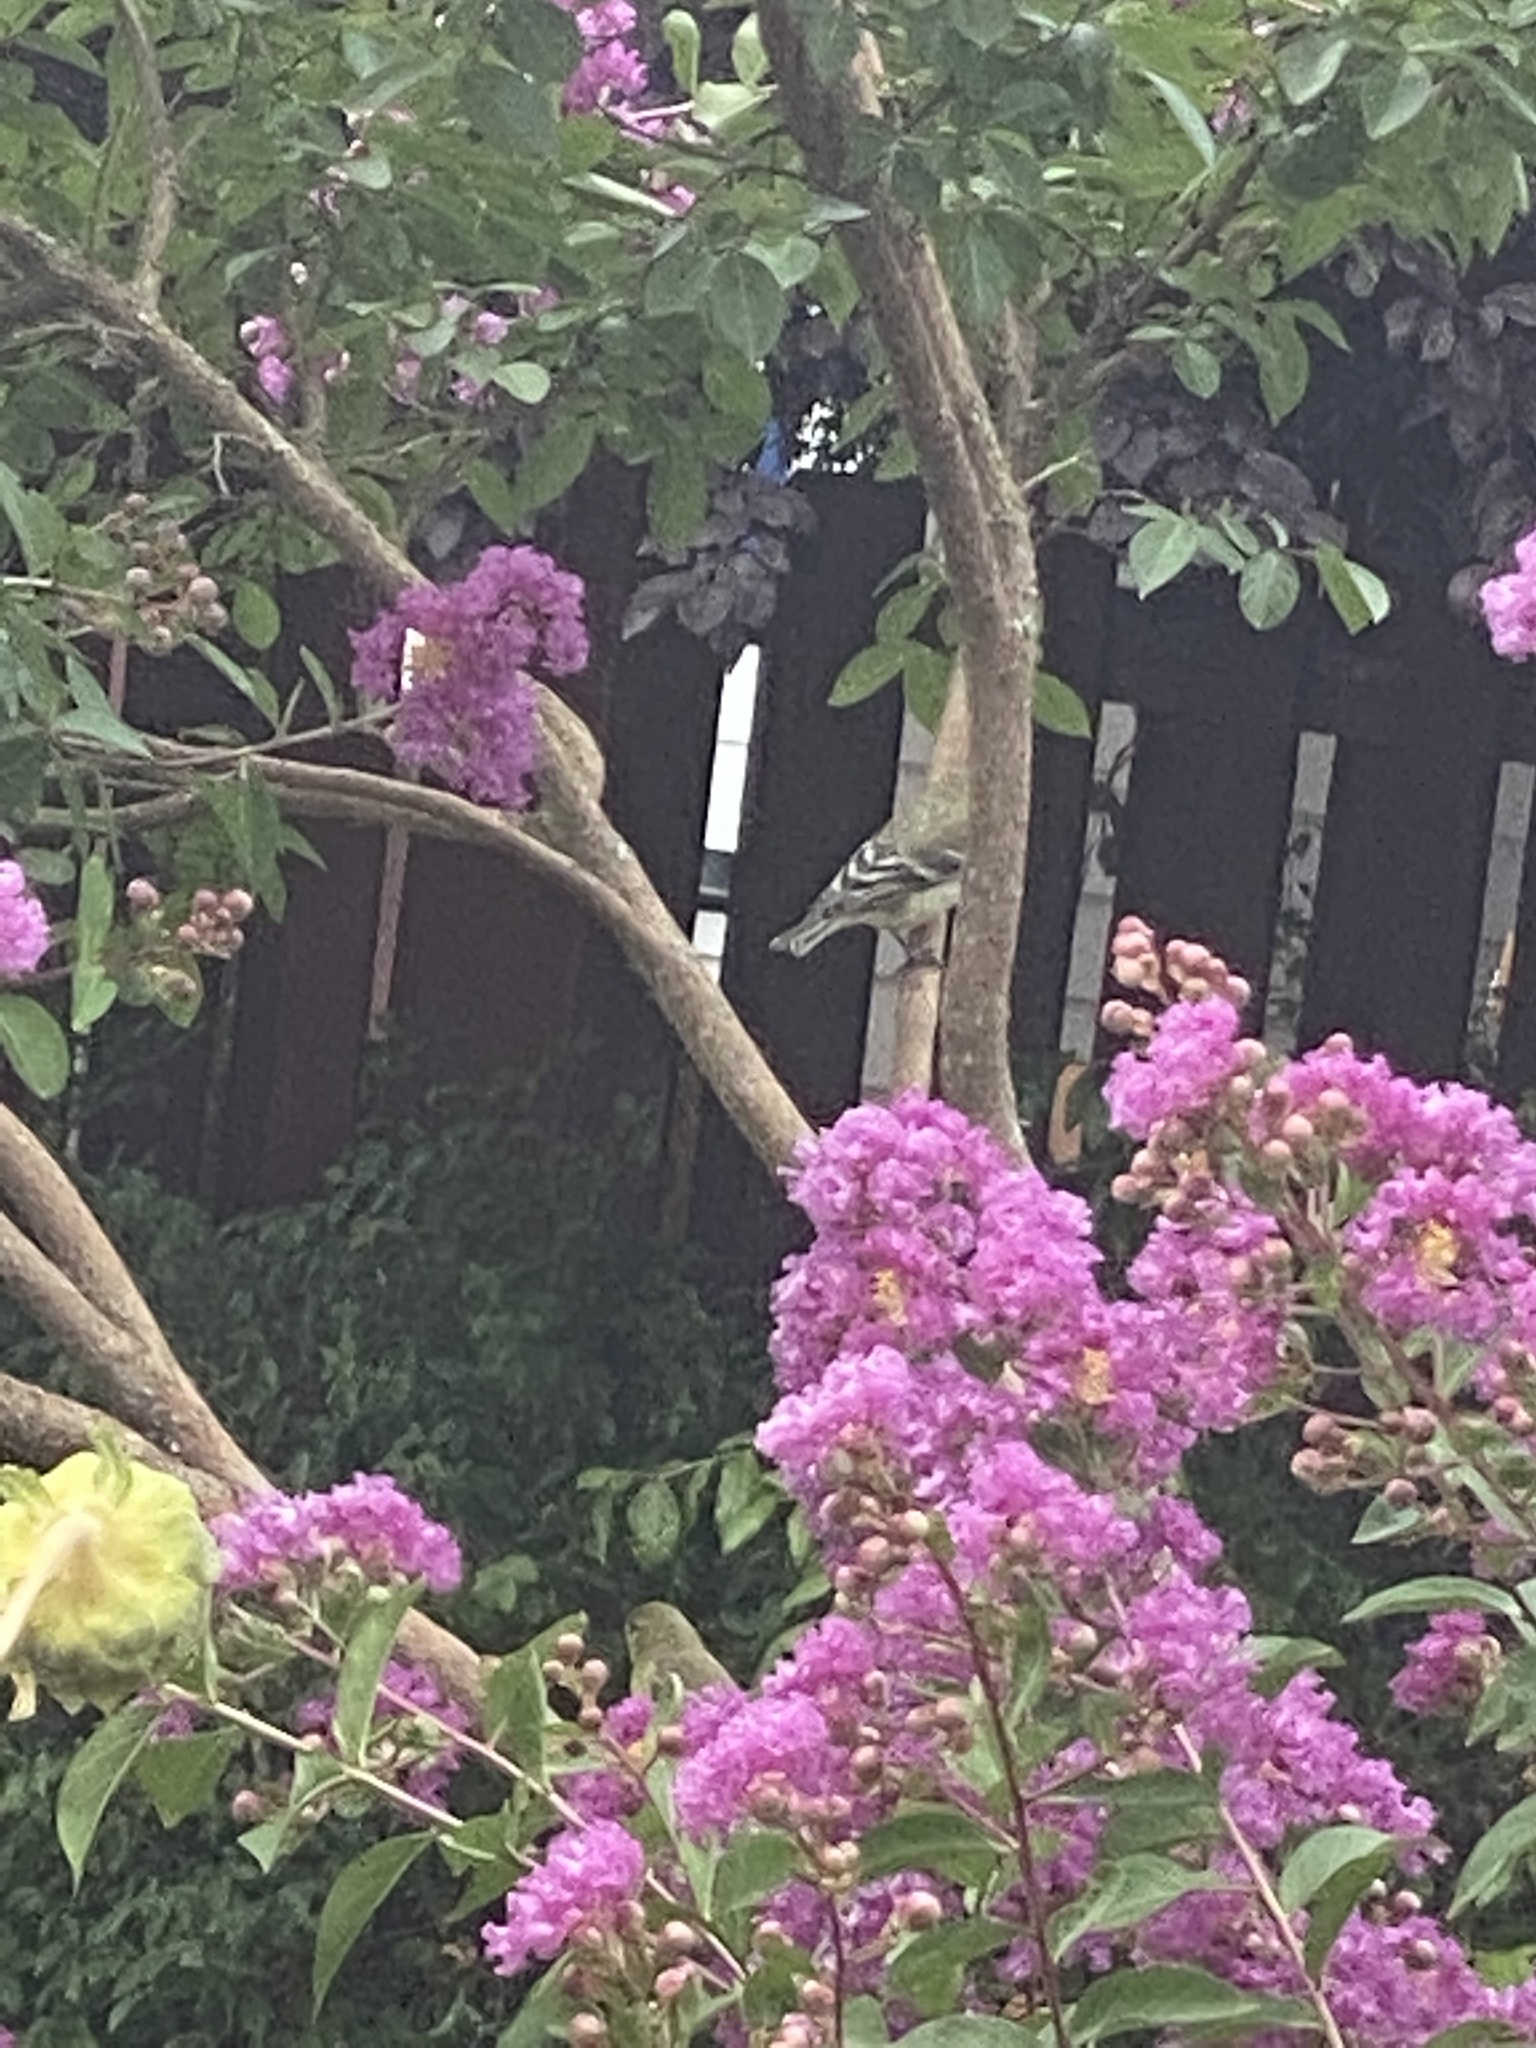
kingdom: Animalia
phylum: Chordata
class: Aves
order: Passeriformes
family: Fringillidae
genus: Spinus
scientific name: Spinus tristis
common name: American goldfinch
